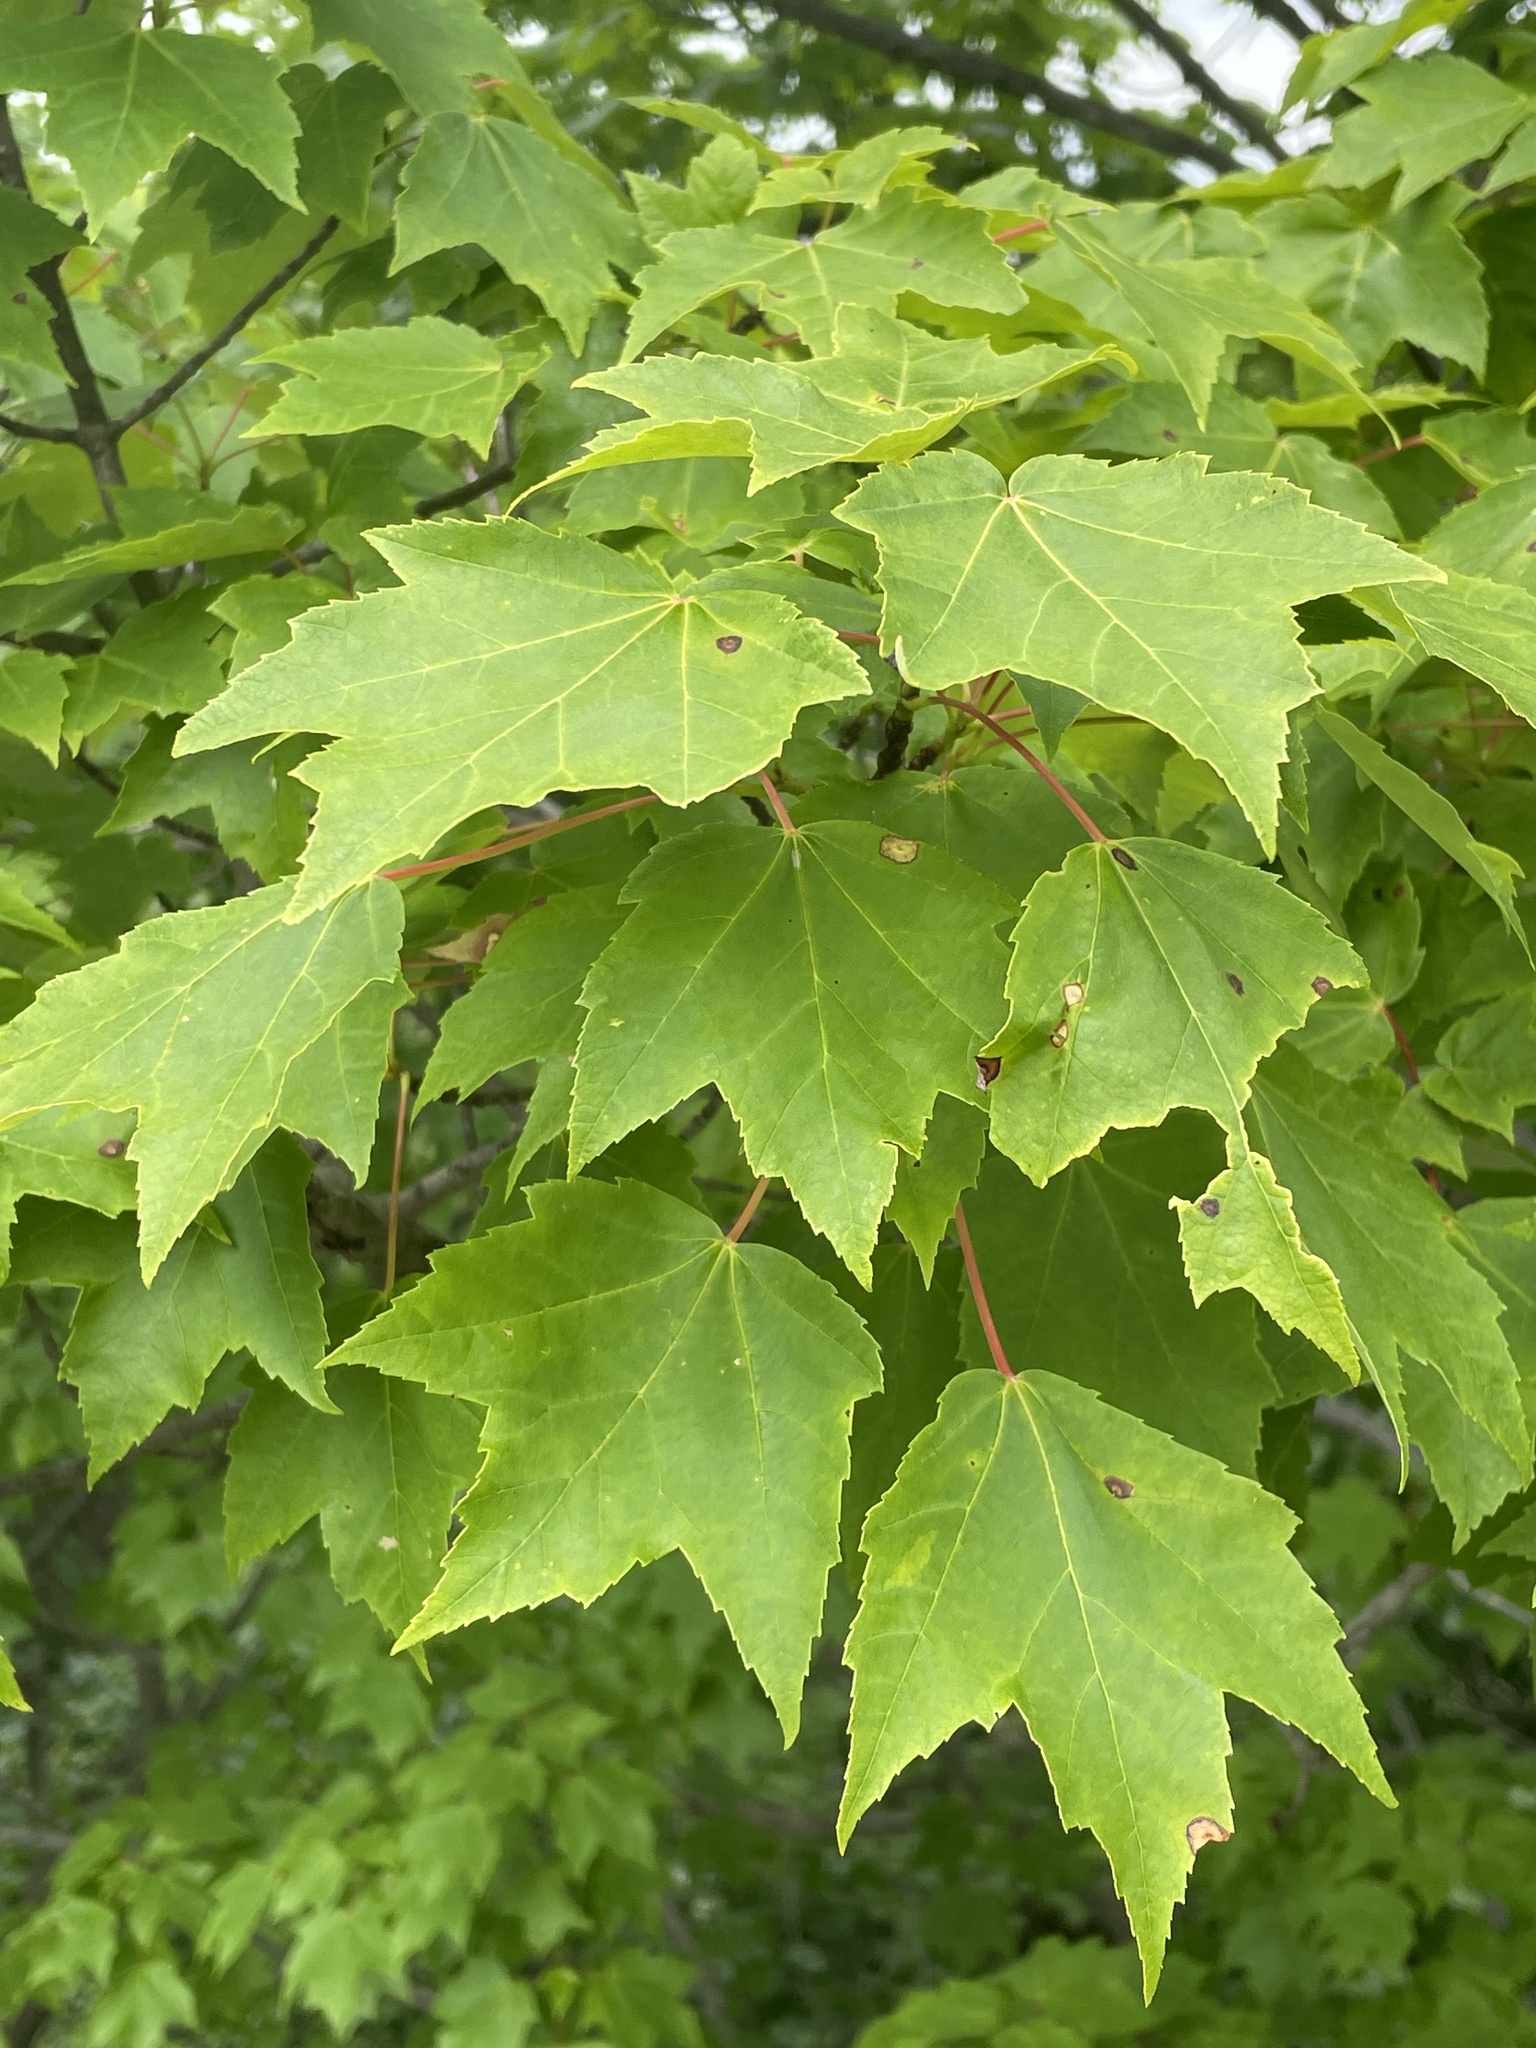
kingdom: Plantae
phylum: Tracheophyta
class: Magnoliopsida
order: Sapindales
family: Sapindaceae
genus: Acer
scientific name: Acer rubrum
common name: Red maple
